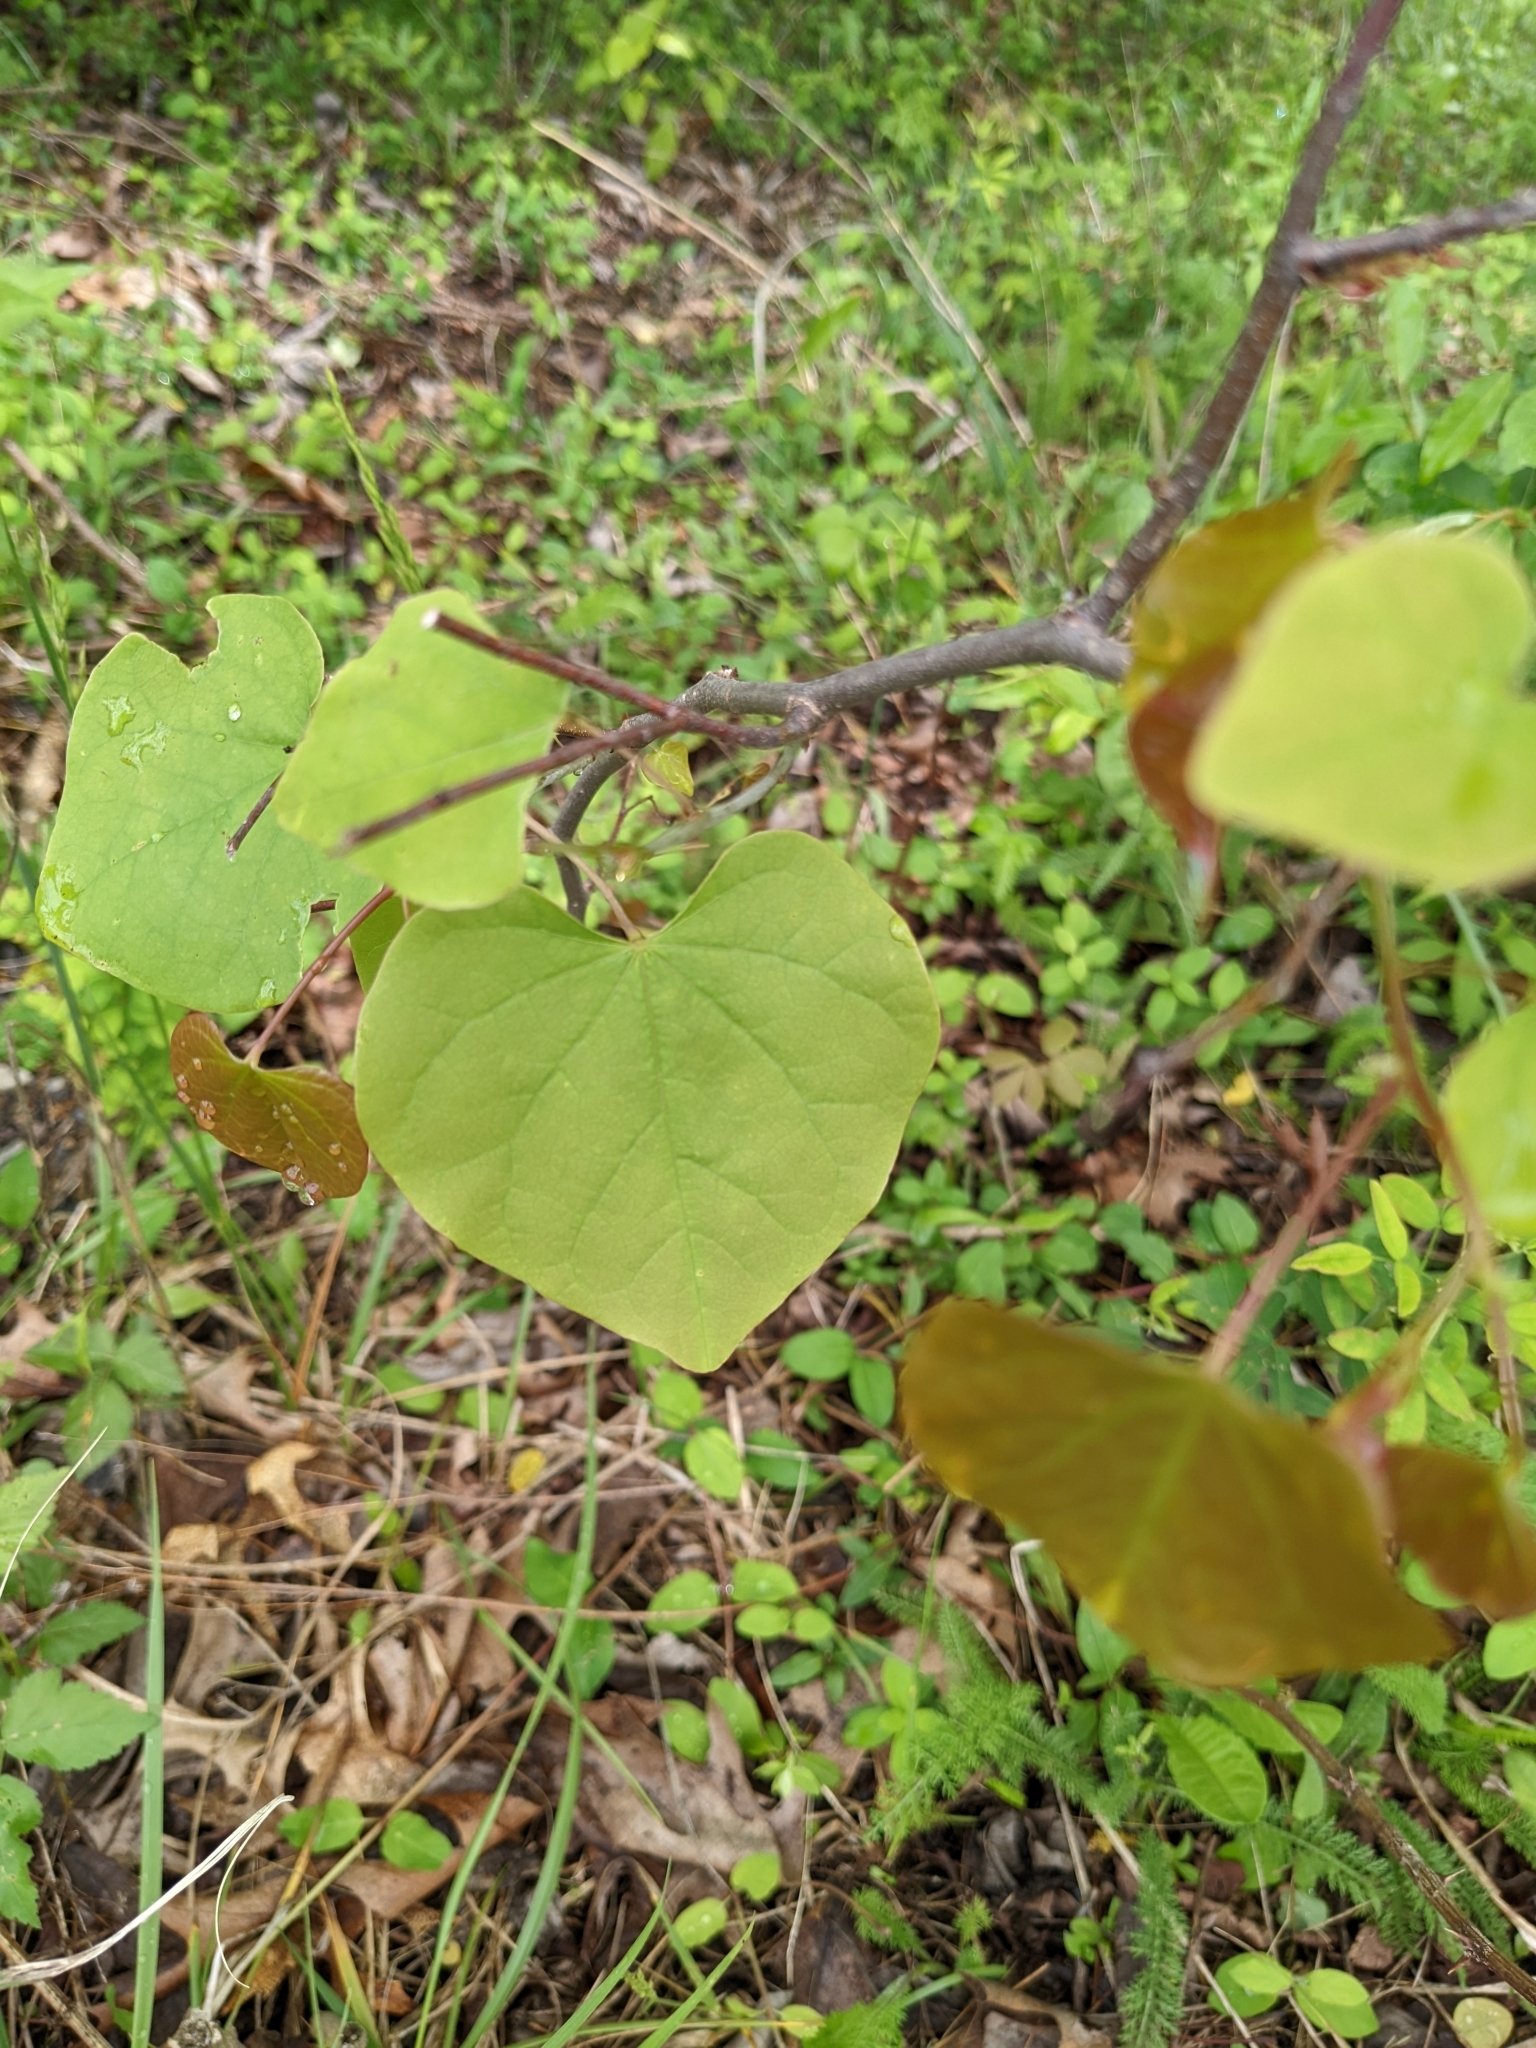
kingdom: Plantae
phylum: Tracheophyta
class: Magnoliopsida
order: Fabales
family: Fabaceae
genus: Cercis
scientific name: Cercis canadensis
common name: Eastern redbud
